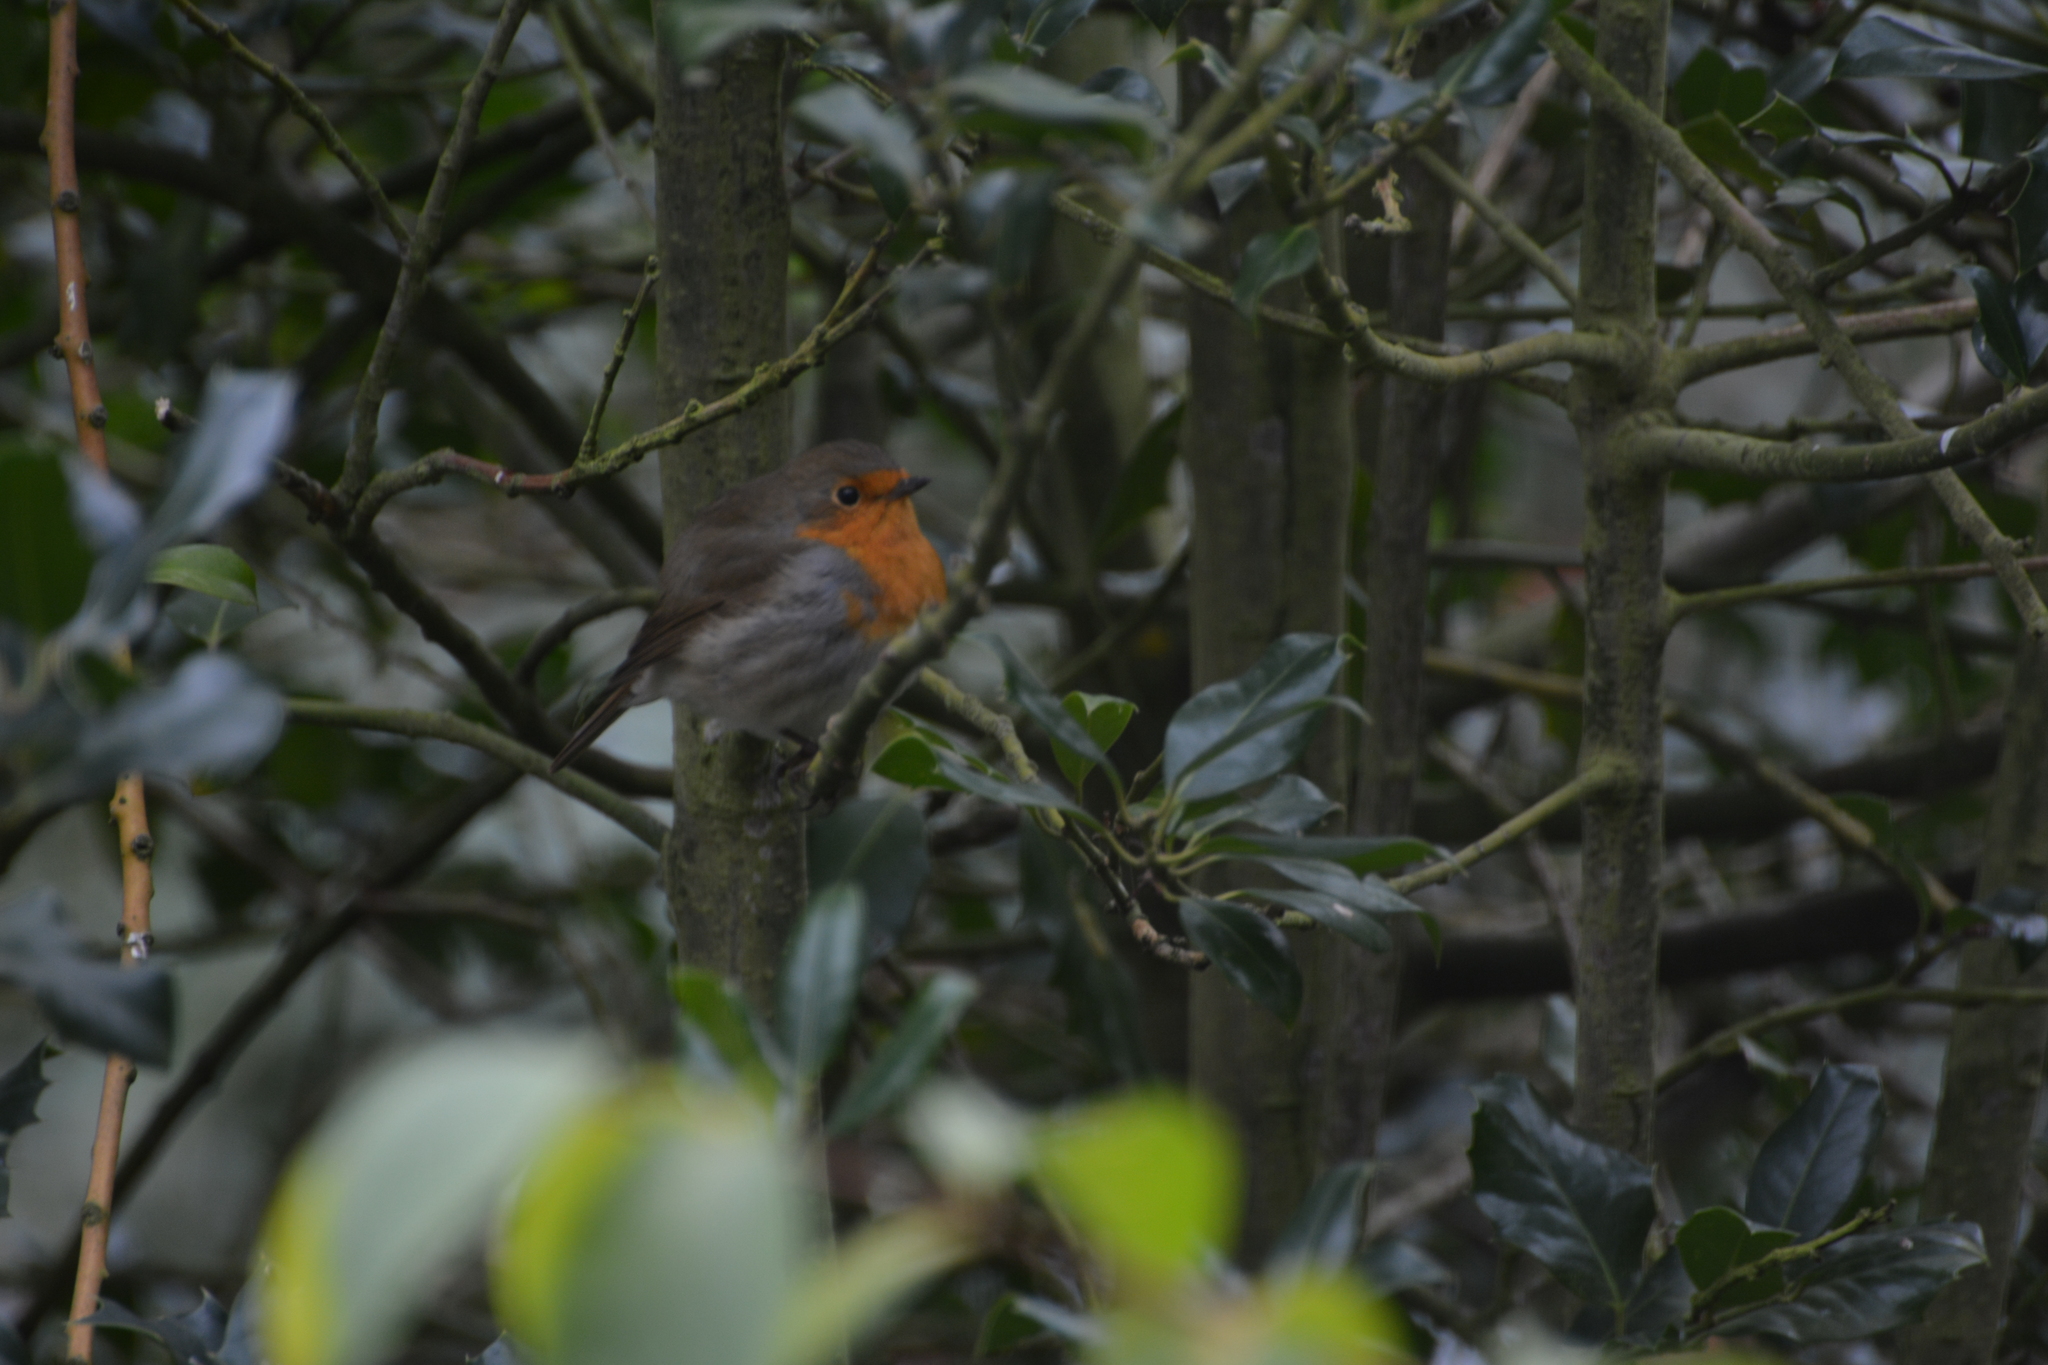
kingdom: Animalia
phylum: Chordata
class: Aves
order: Passeriformes
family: Muscicapidae
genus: Erithacus
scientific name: Erithacus rubecula
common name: European robin
